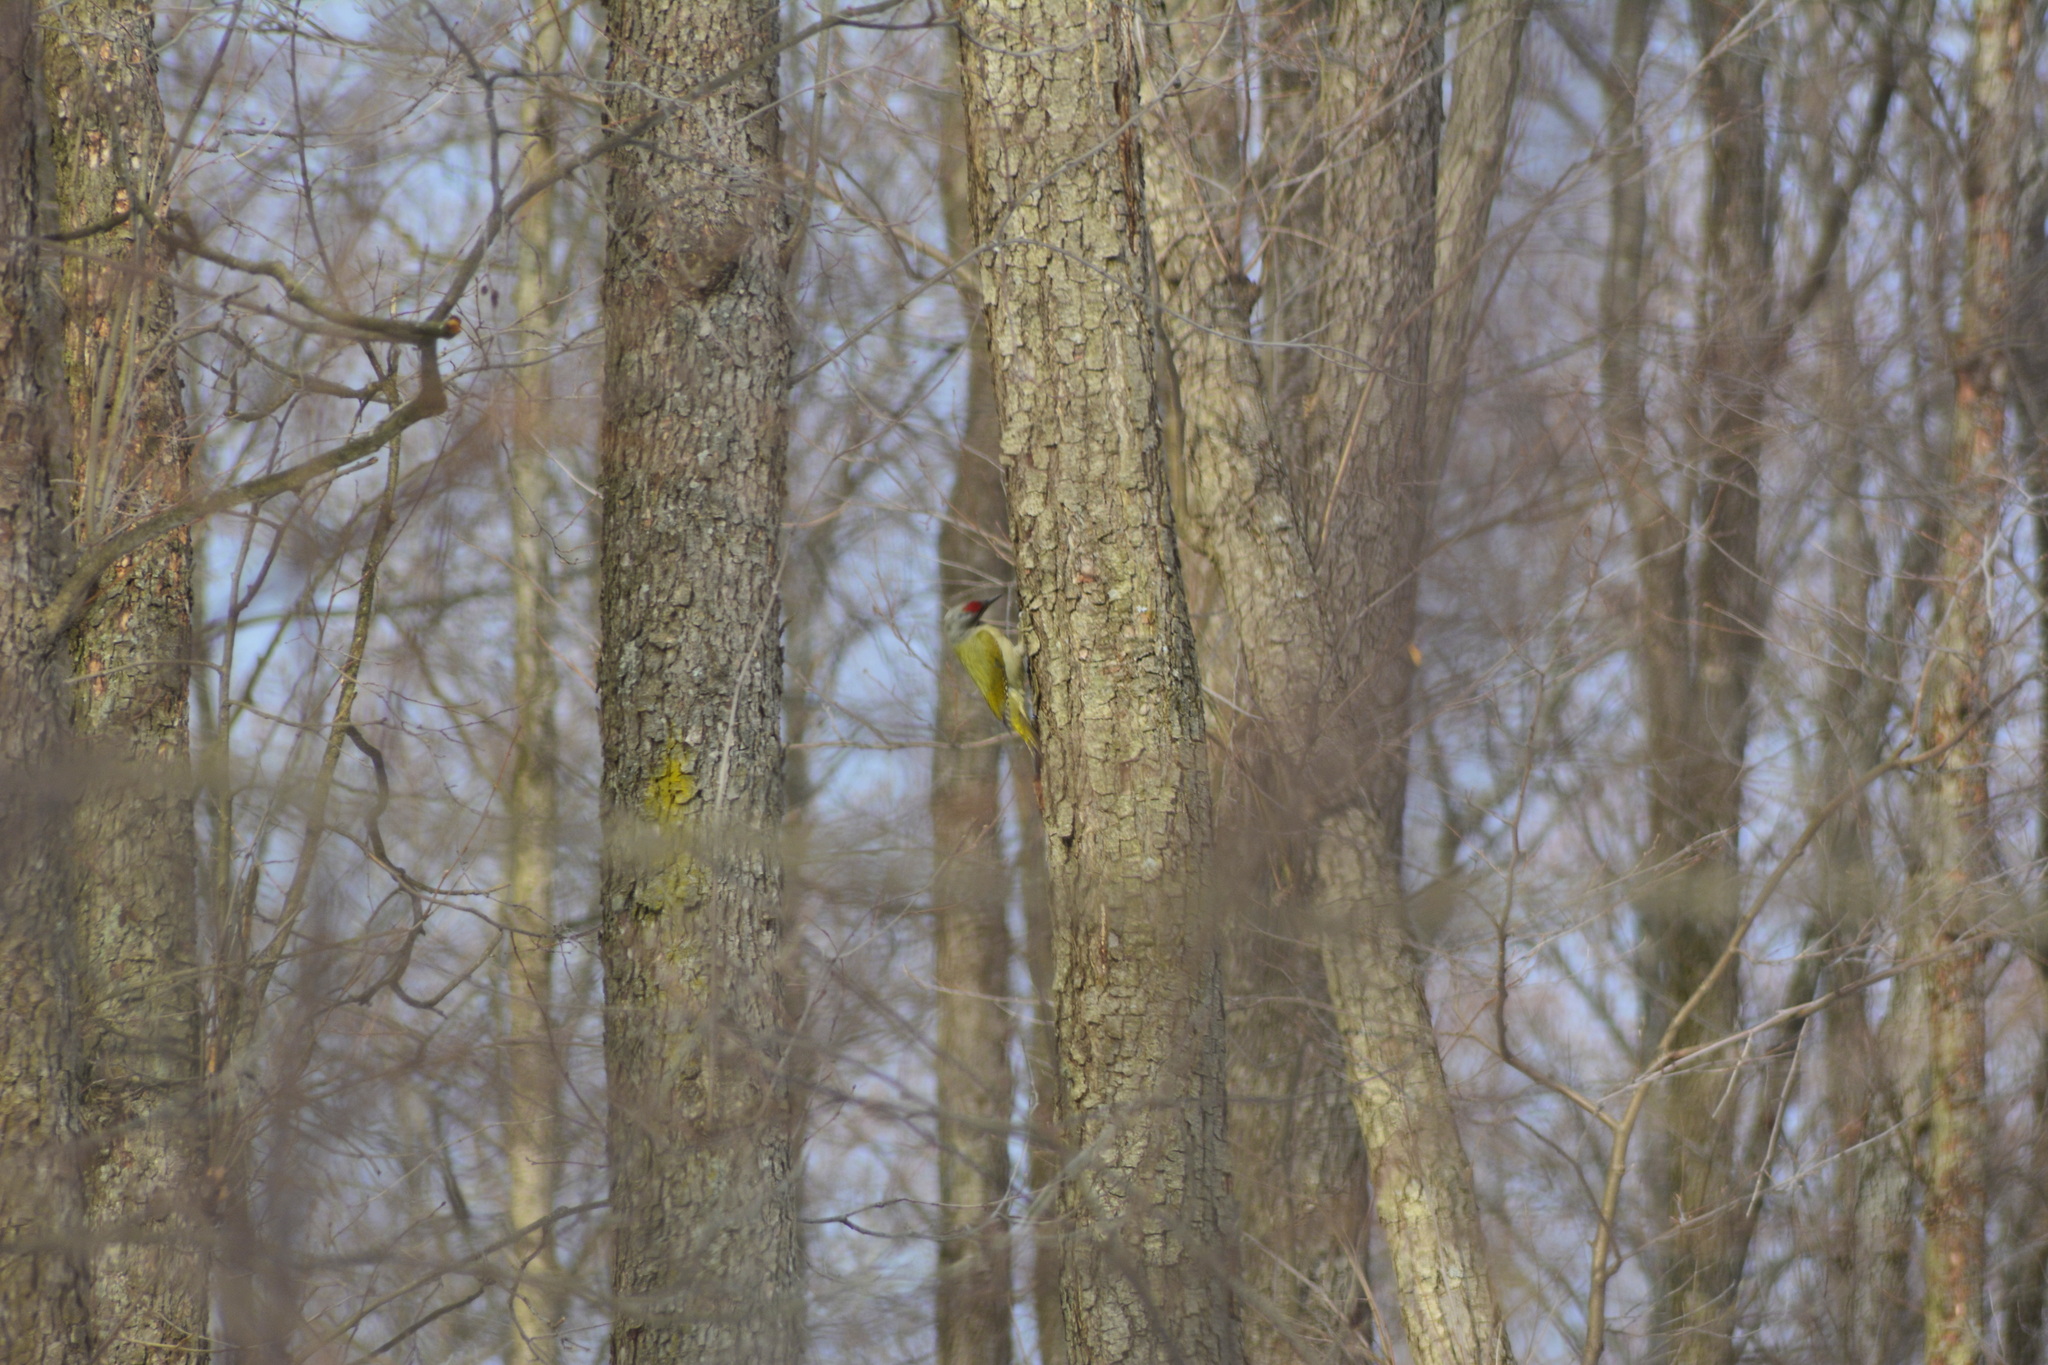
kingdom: Animalia
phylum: Chordata
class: Aves
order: Piciformes
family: Picidae
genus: Picus
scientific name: Picus canus
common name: Grey-headed woodpecker
